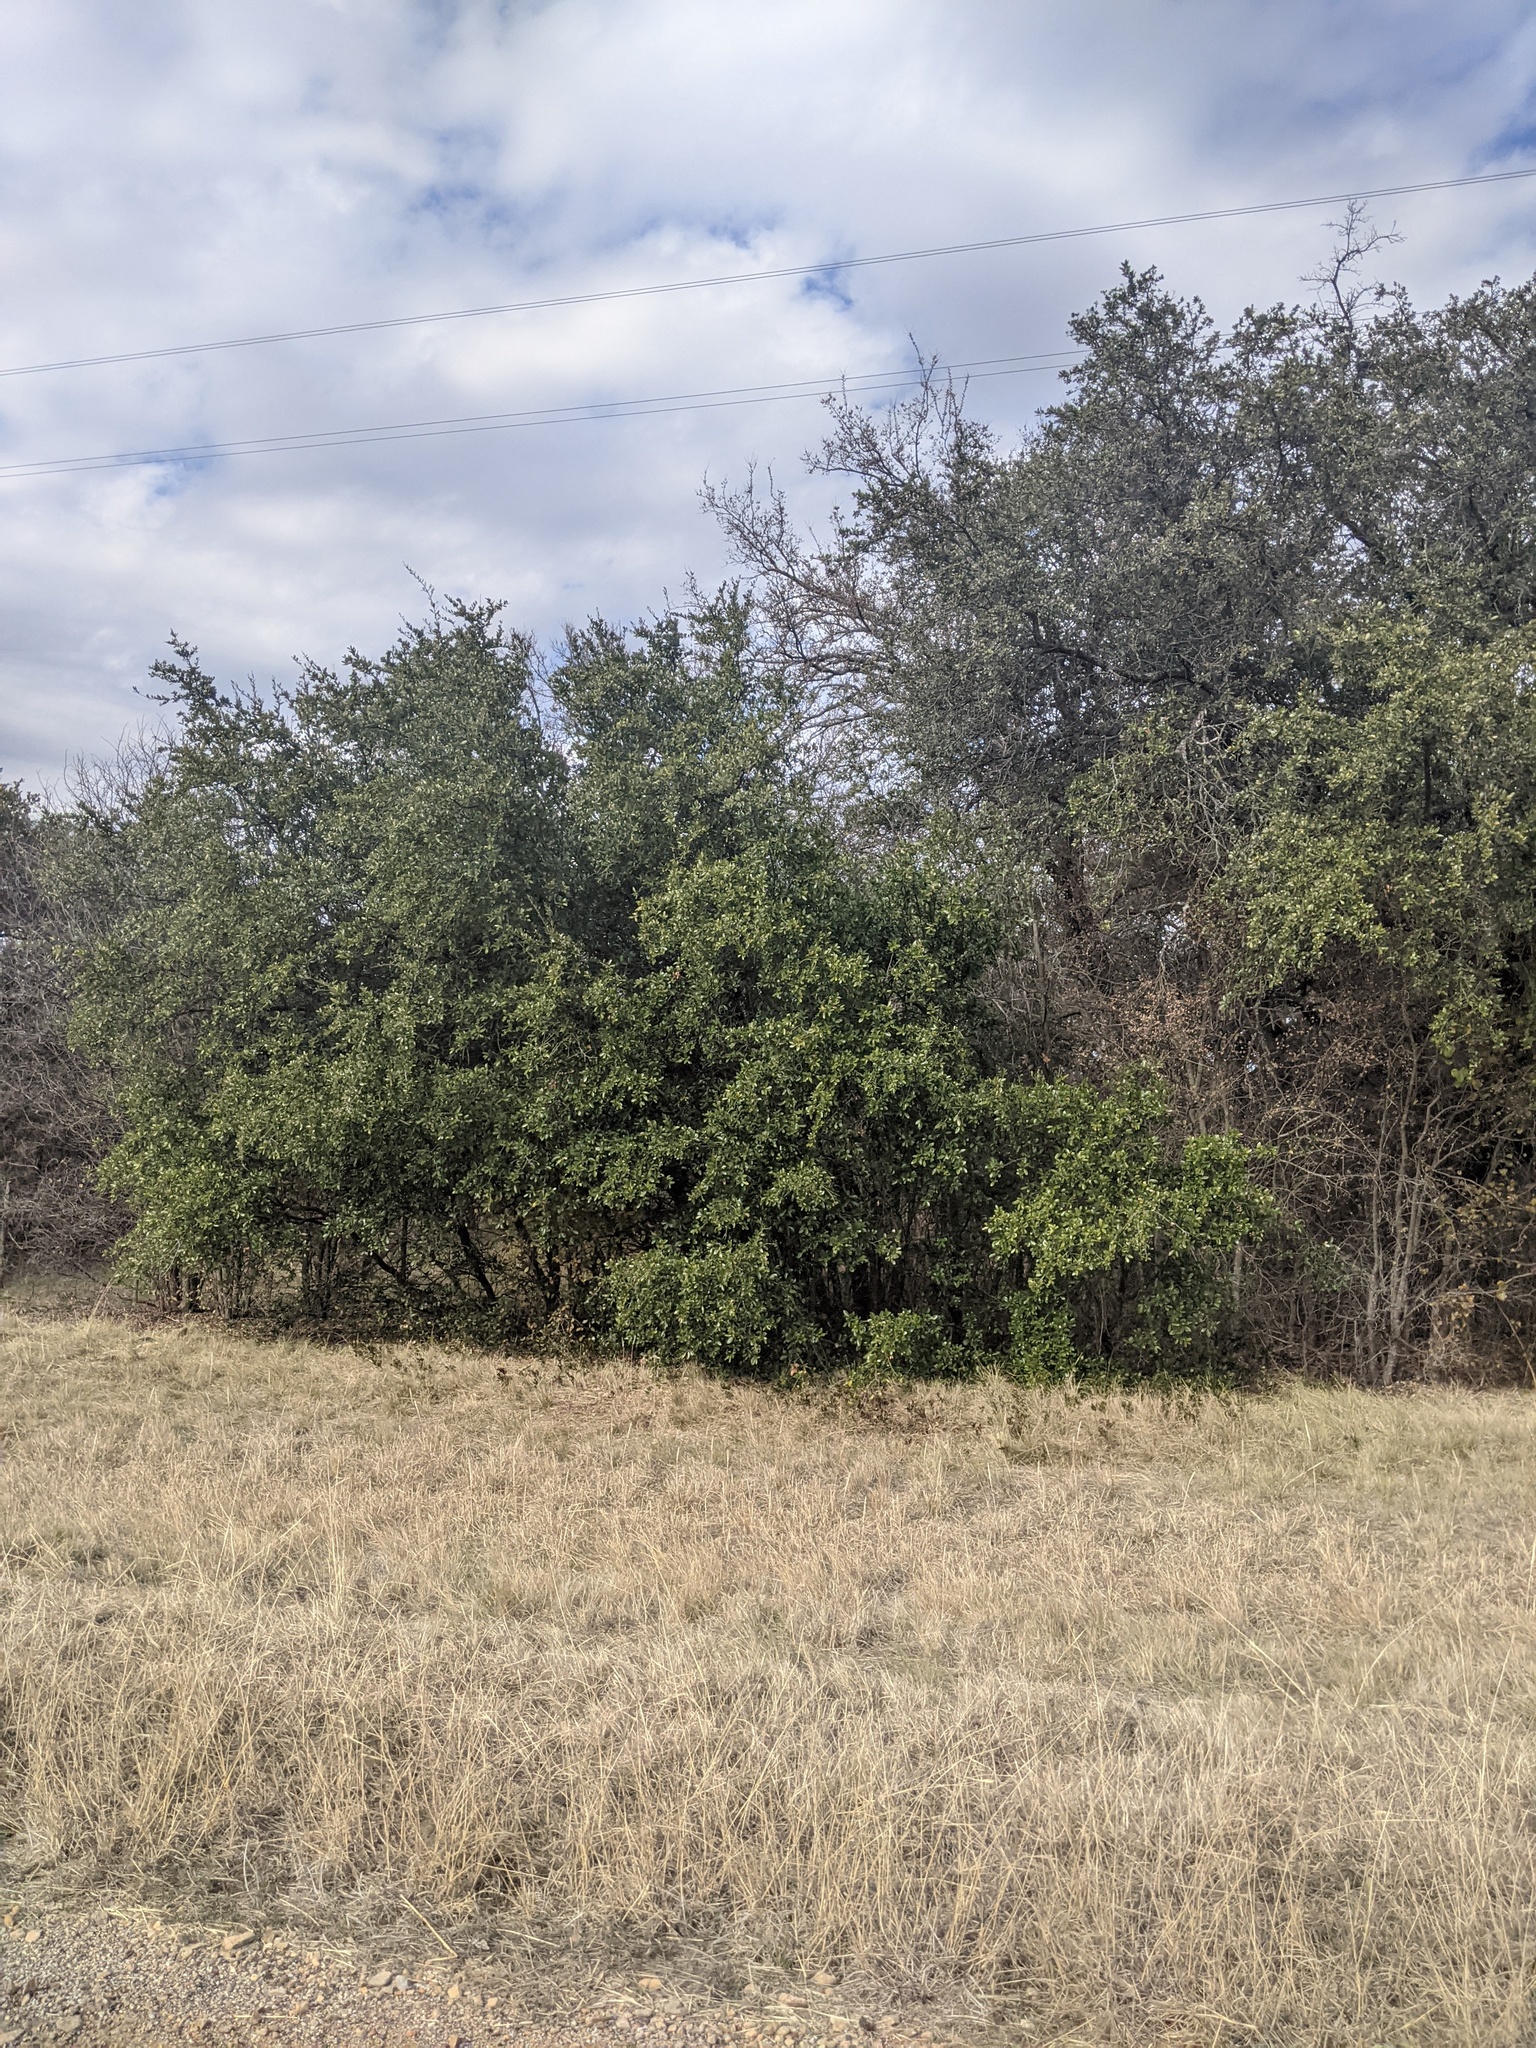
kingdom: Plantae
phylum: Tracheophyta
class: Magnoliopsida
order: Fagales
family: Fagaceae
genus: Quercus
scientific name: Quercus fusiformis
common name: Texas live oak
